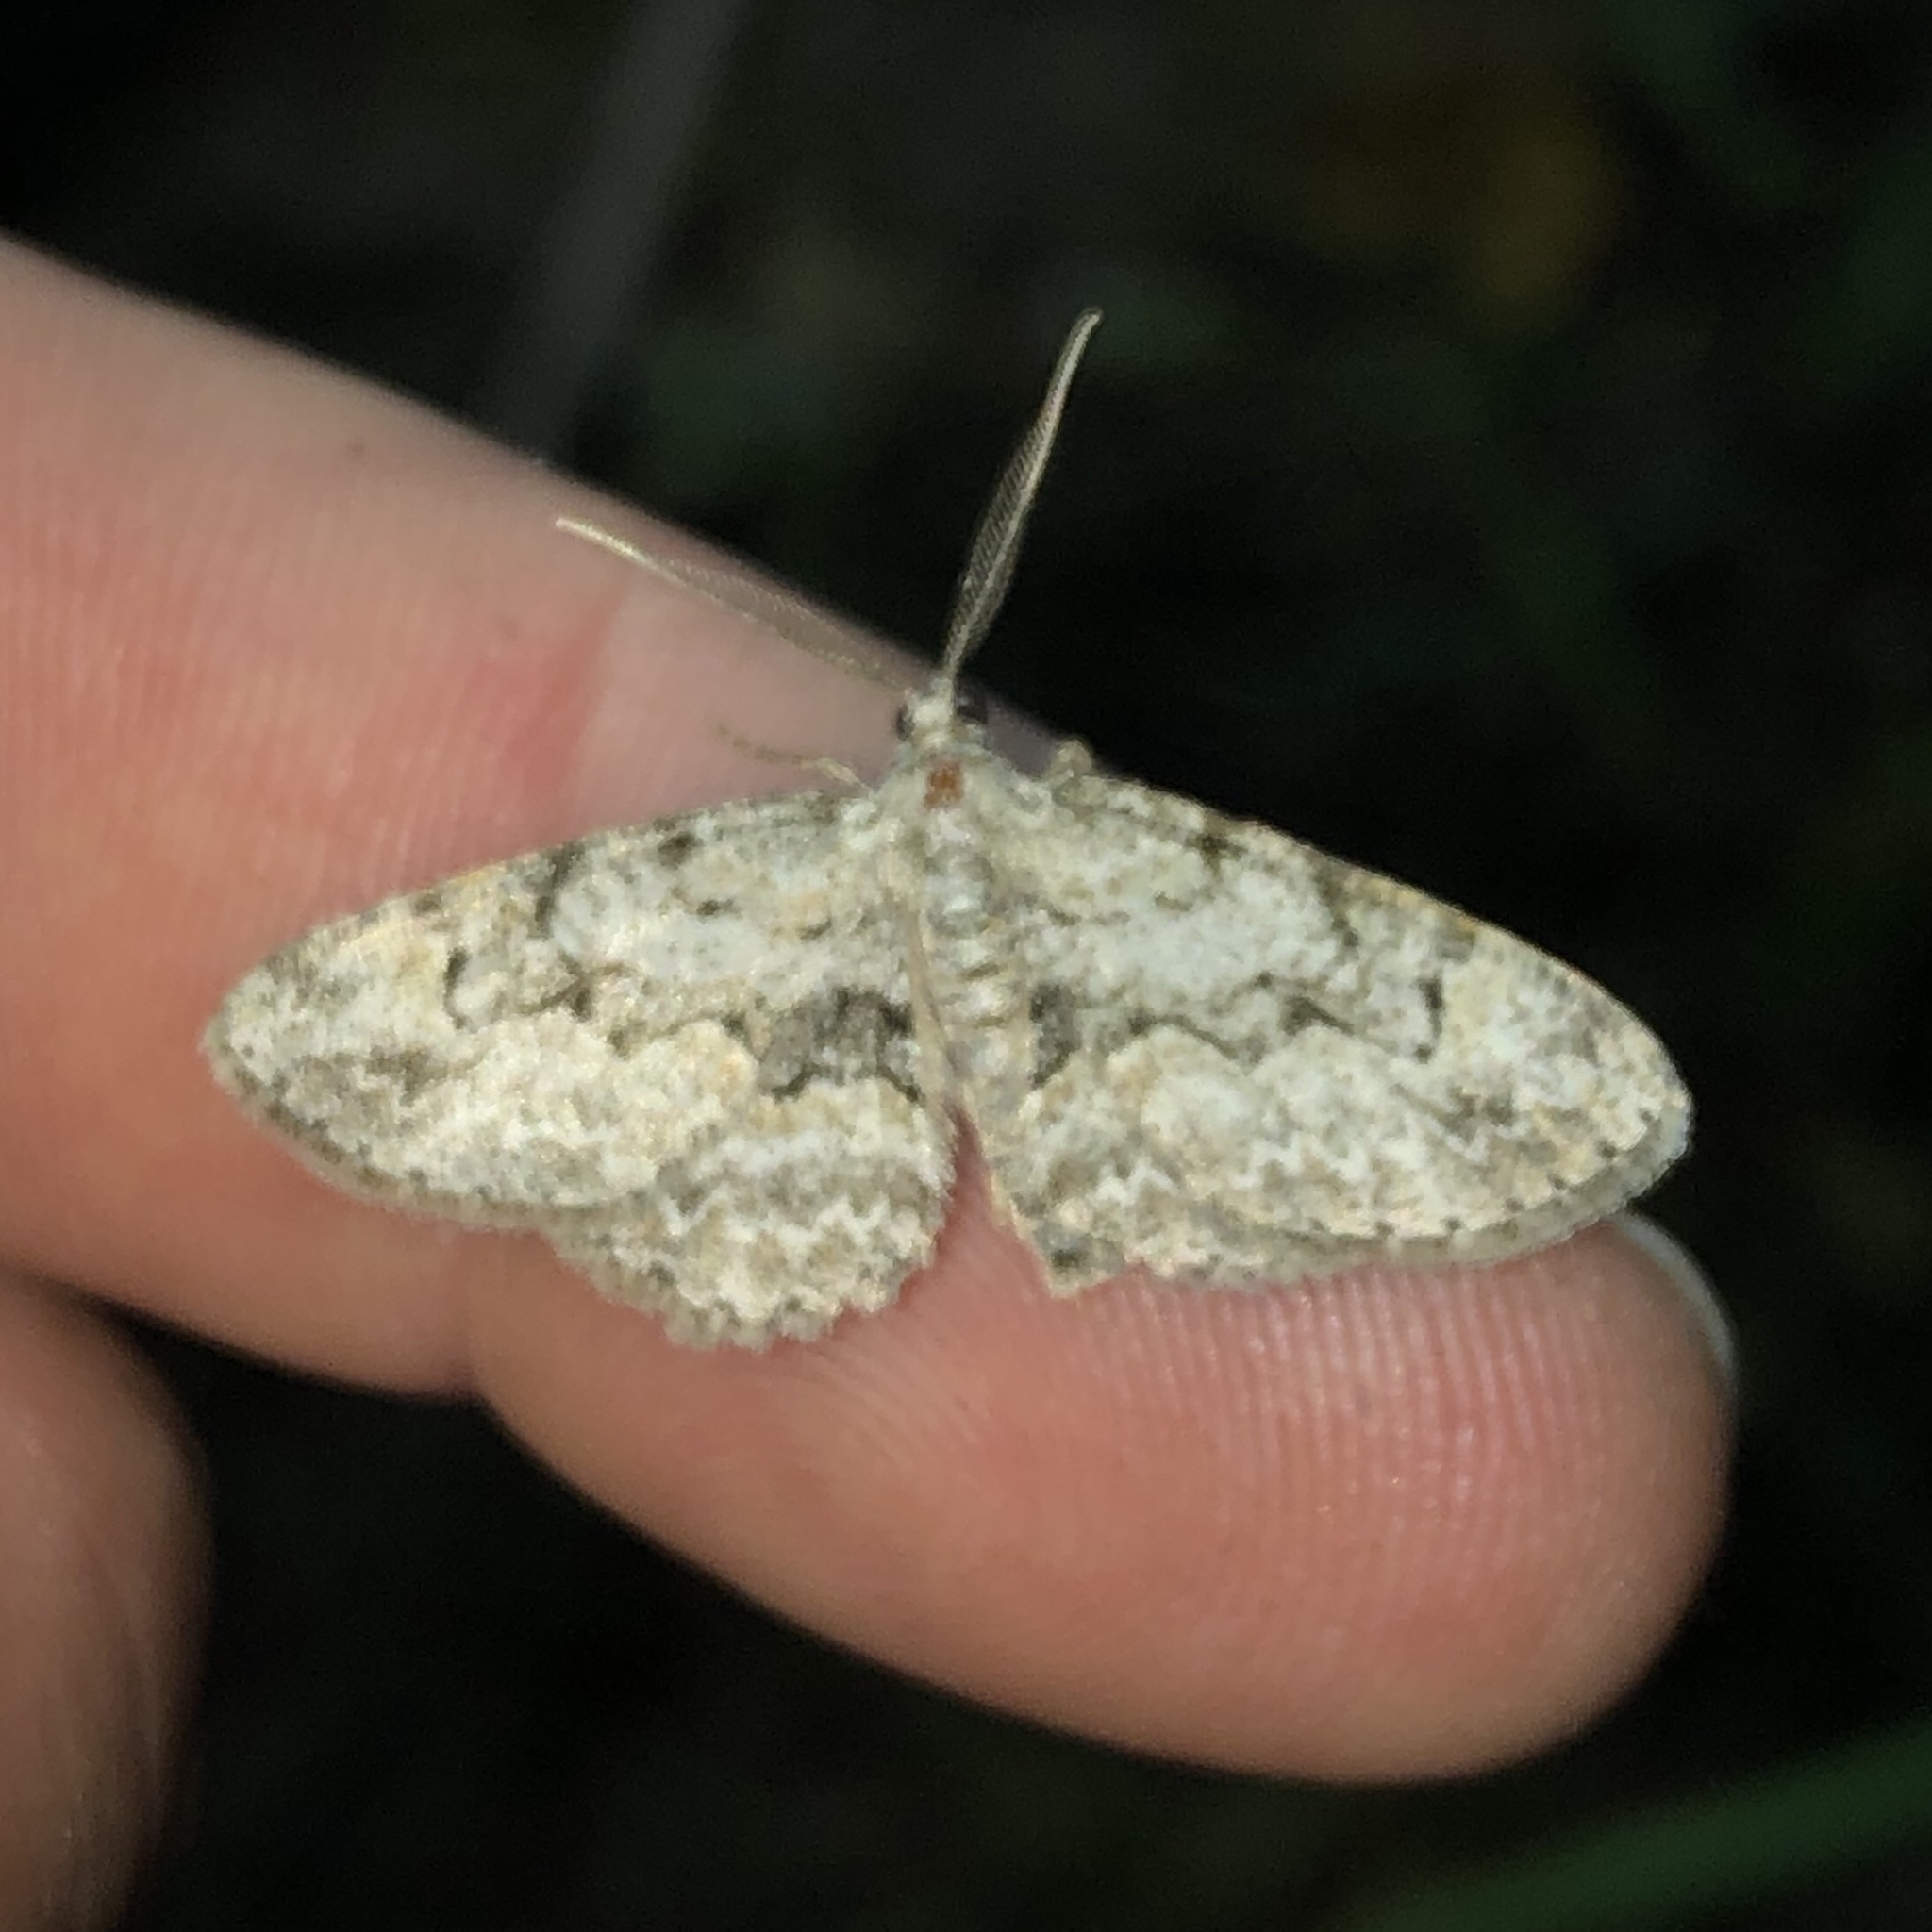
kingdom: Animalia
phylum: Arthropoda
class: Insecta
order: Lepidoptera
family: Geometridae
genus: Iridopsis
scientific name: Iridopsis ephyraria
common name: Pale-winged gray
